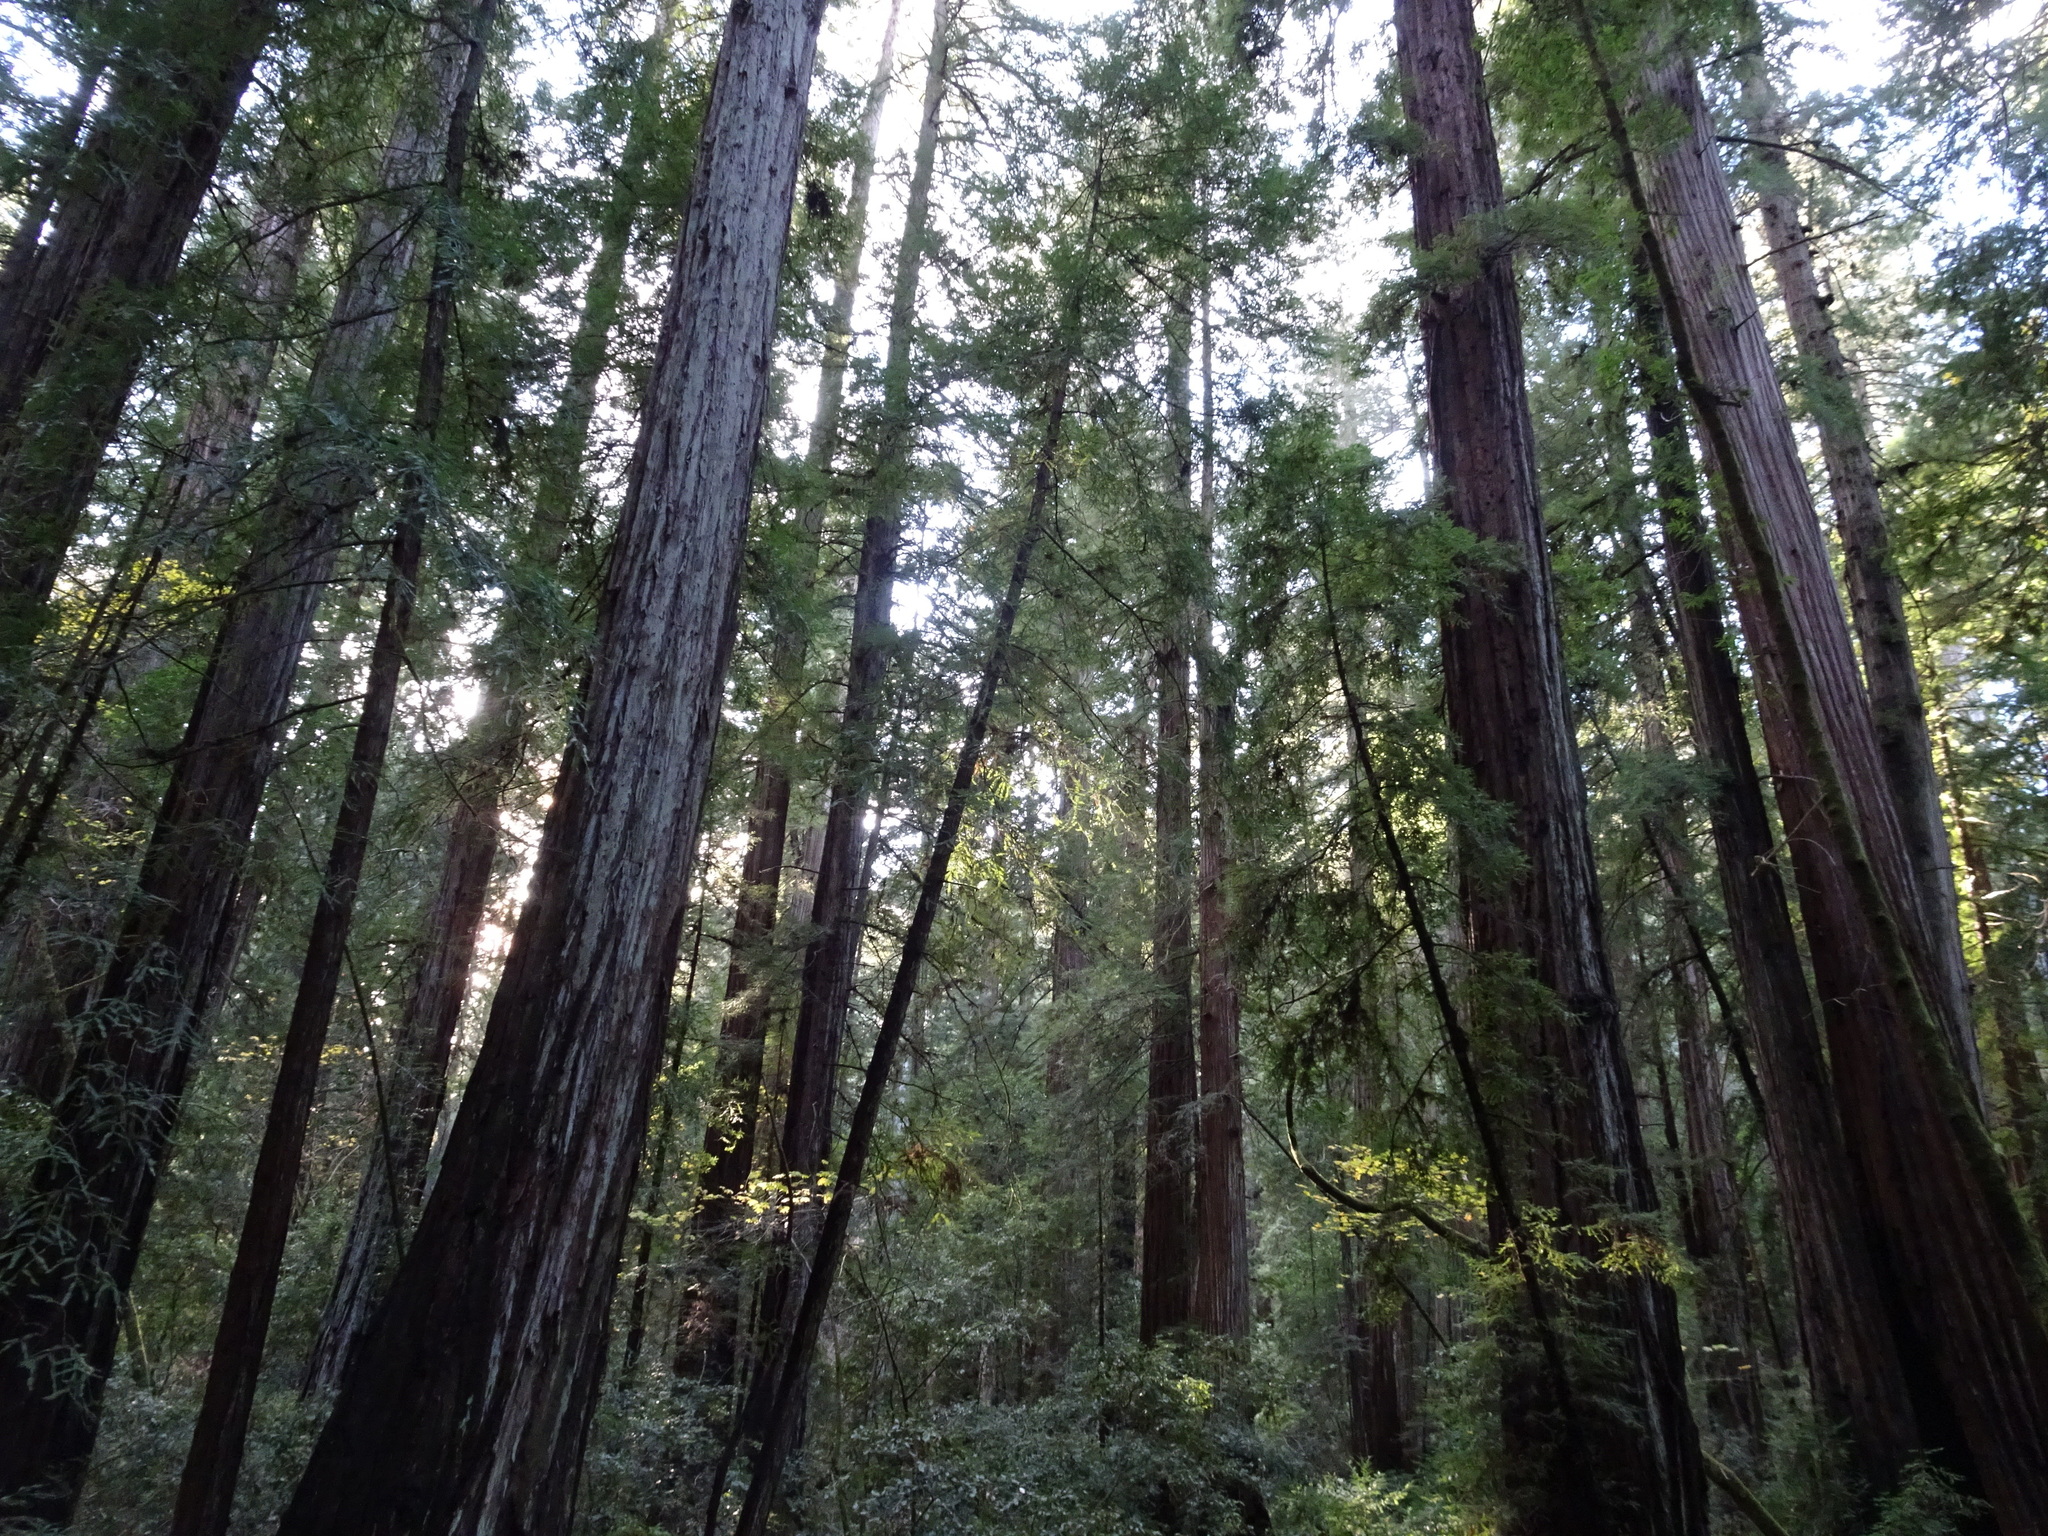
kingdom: Plantae
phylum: Tracheophyta
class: Pinopsida
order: Pinales
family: Cupressaceae
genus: Sequoia
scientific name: Sequoia sempervirens
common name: Coast redwood
